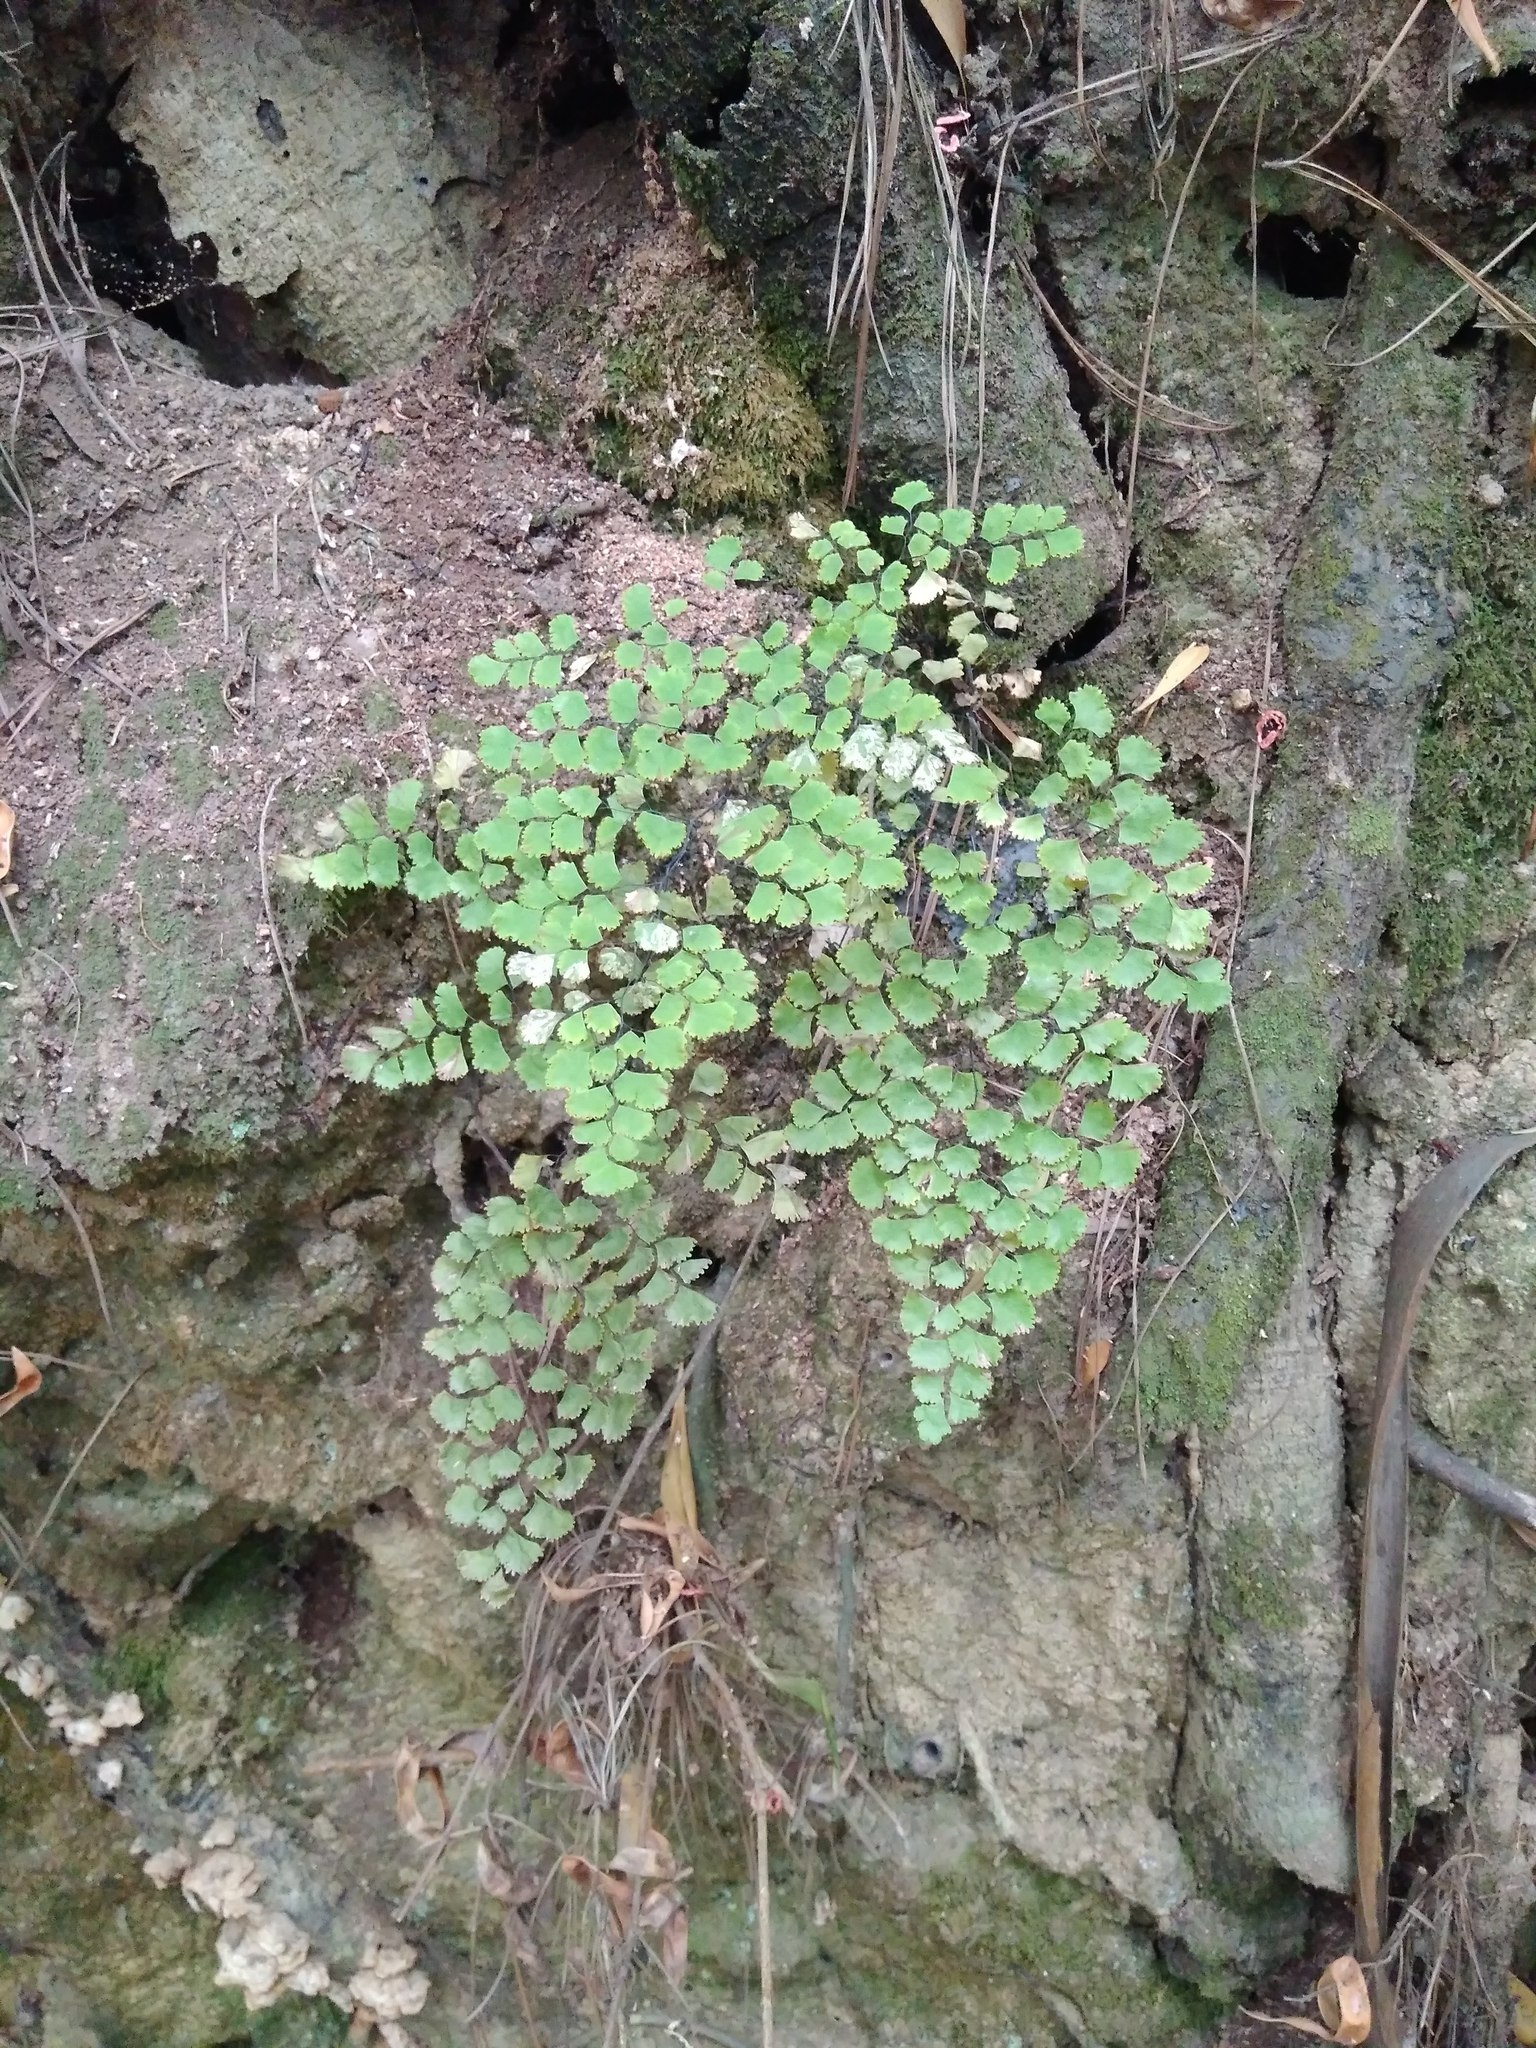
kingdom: Plantae
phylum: Tracheophyta
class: Polypodiopsida
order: Polypodiales
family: Pteridaceae
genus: Adiantum
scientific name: Adiantum chilense
